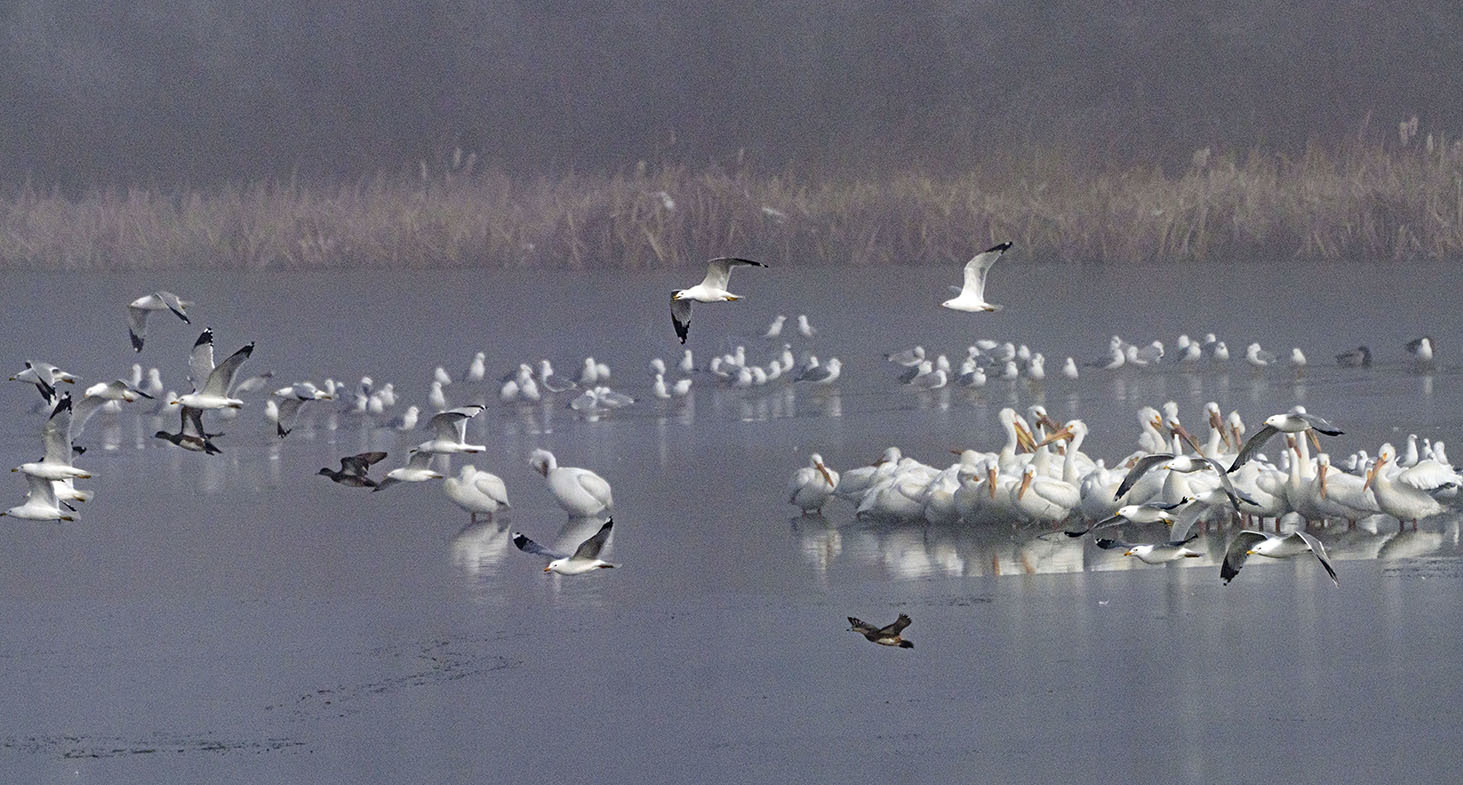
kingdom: Animalia
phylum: Chordata
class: Aves
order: Pelecaniformes
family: Pelecanidae
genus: Pelecanus
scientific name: Pelecanus erythrorhynchos
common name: American white pelican
